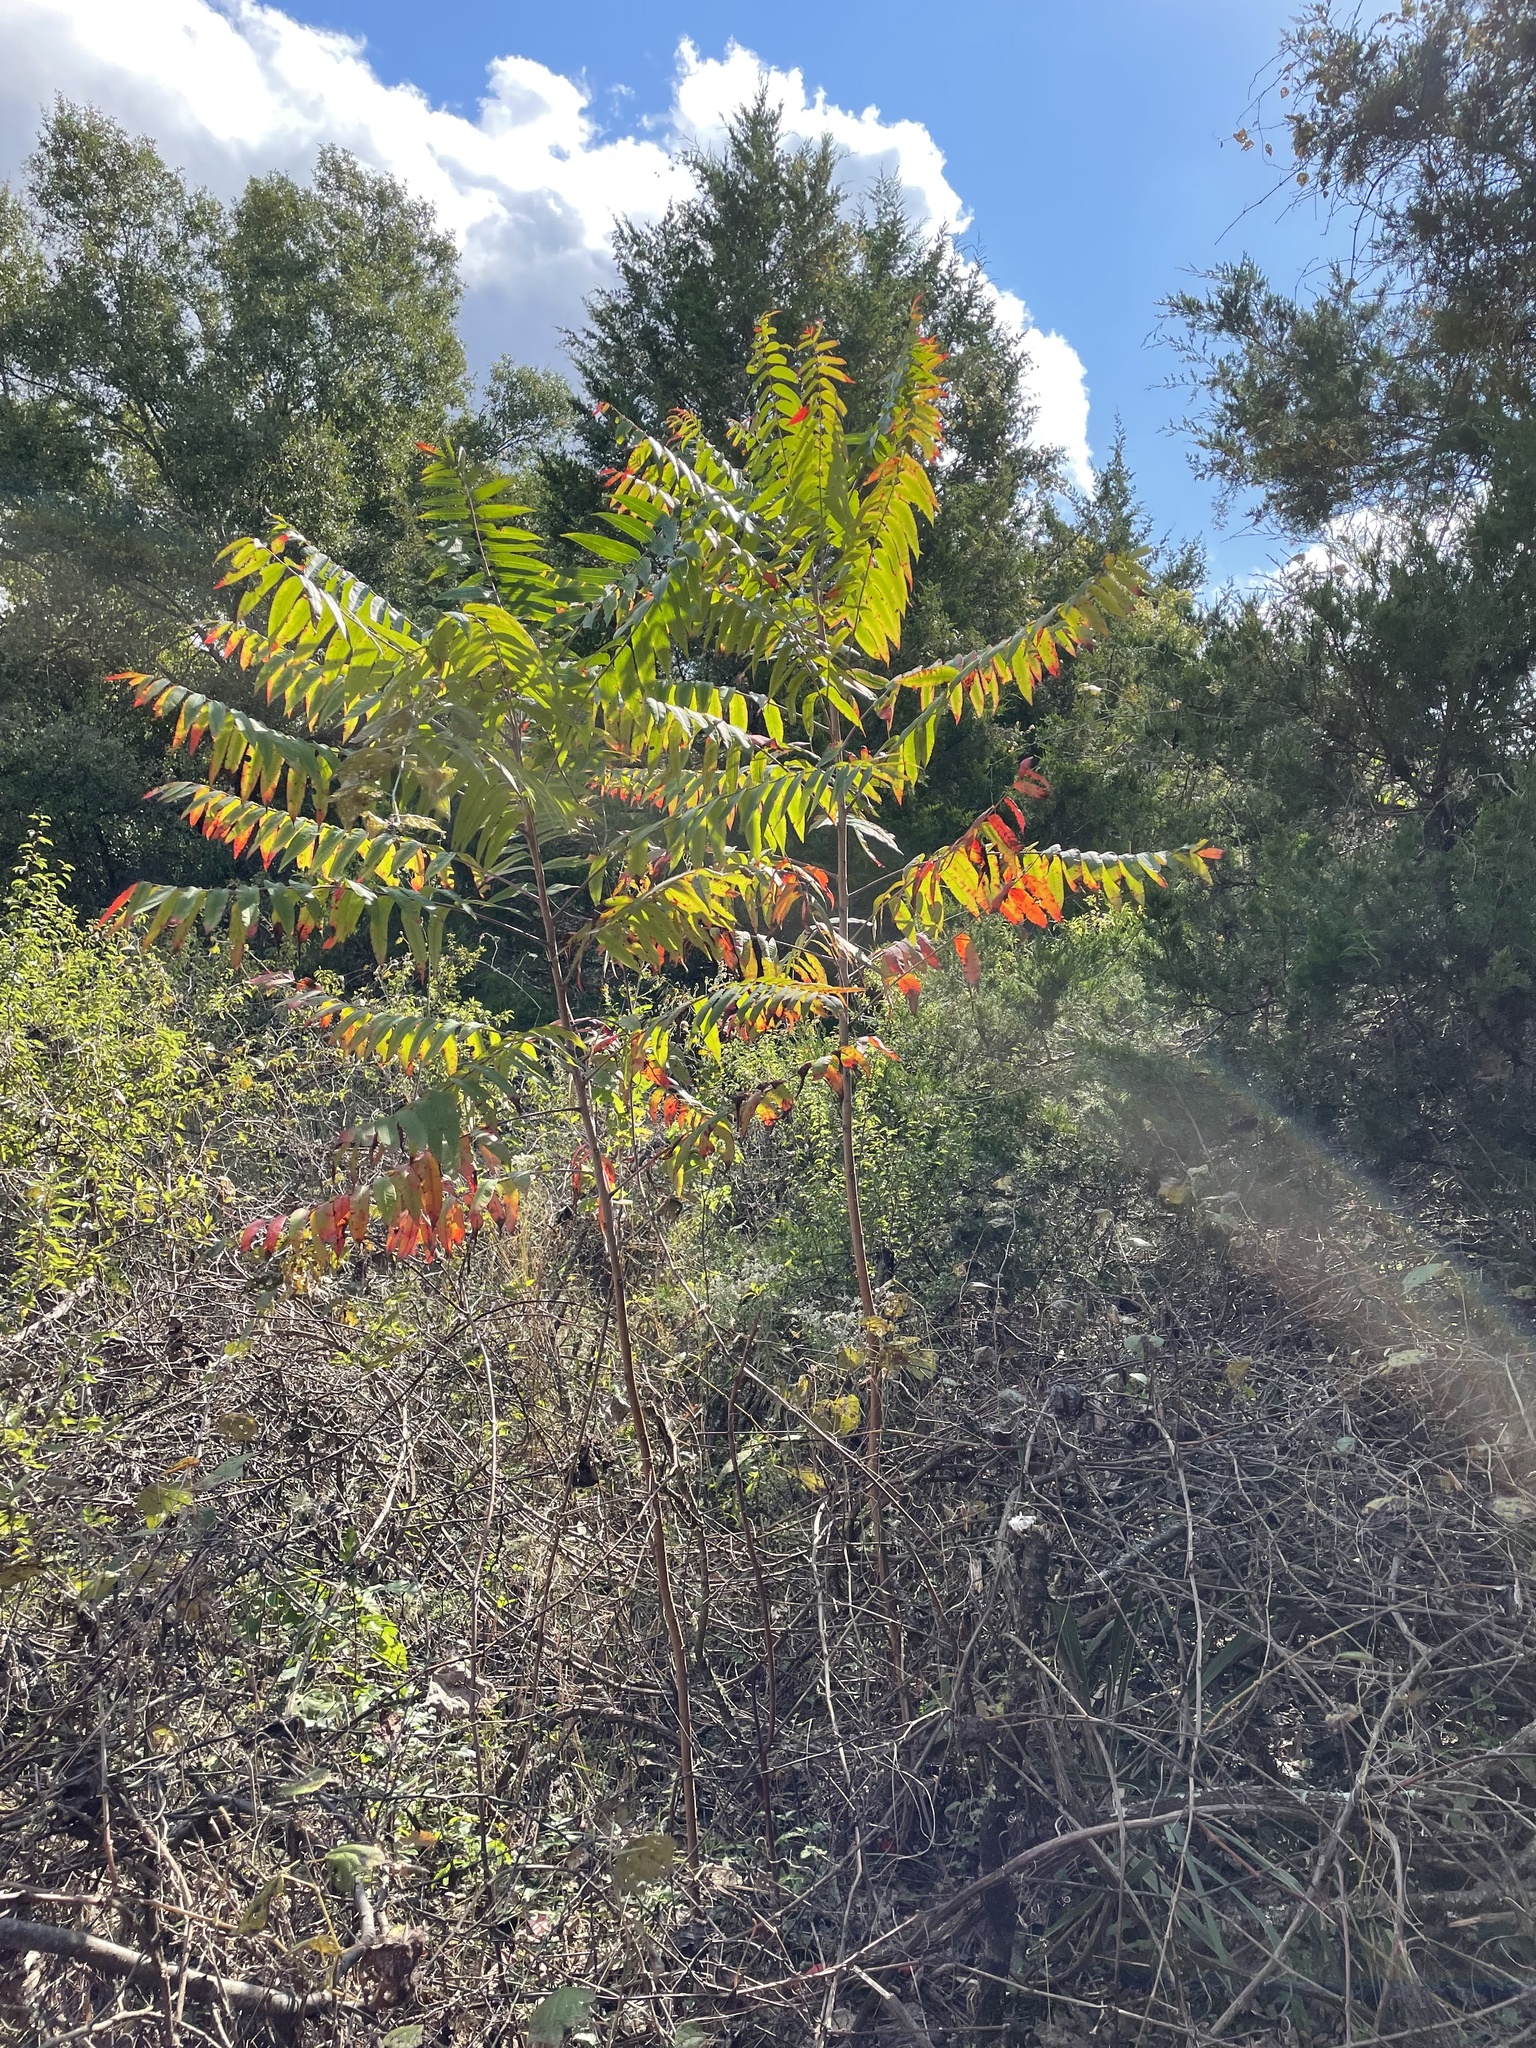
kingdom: Plantae
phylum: Tracheophyta
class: Magnoliopsida
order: Sapindales
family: Anacardiaceae
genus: Rhus
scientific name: Rhus glabra
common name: Scarlet sumac
